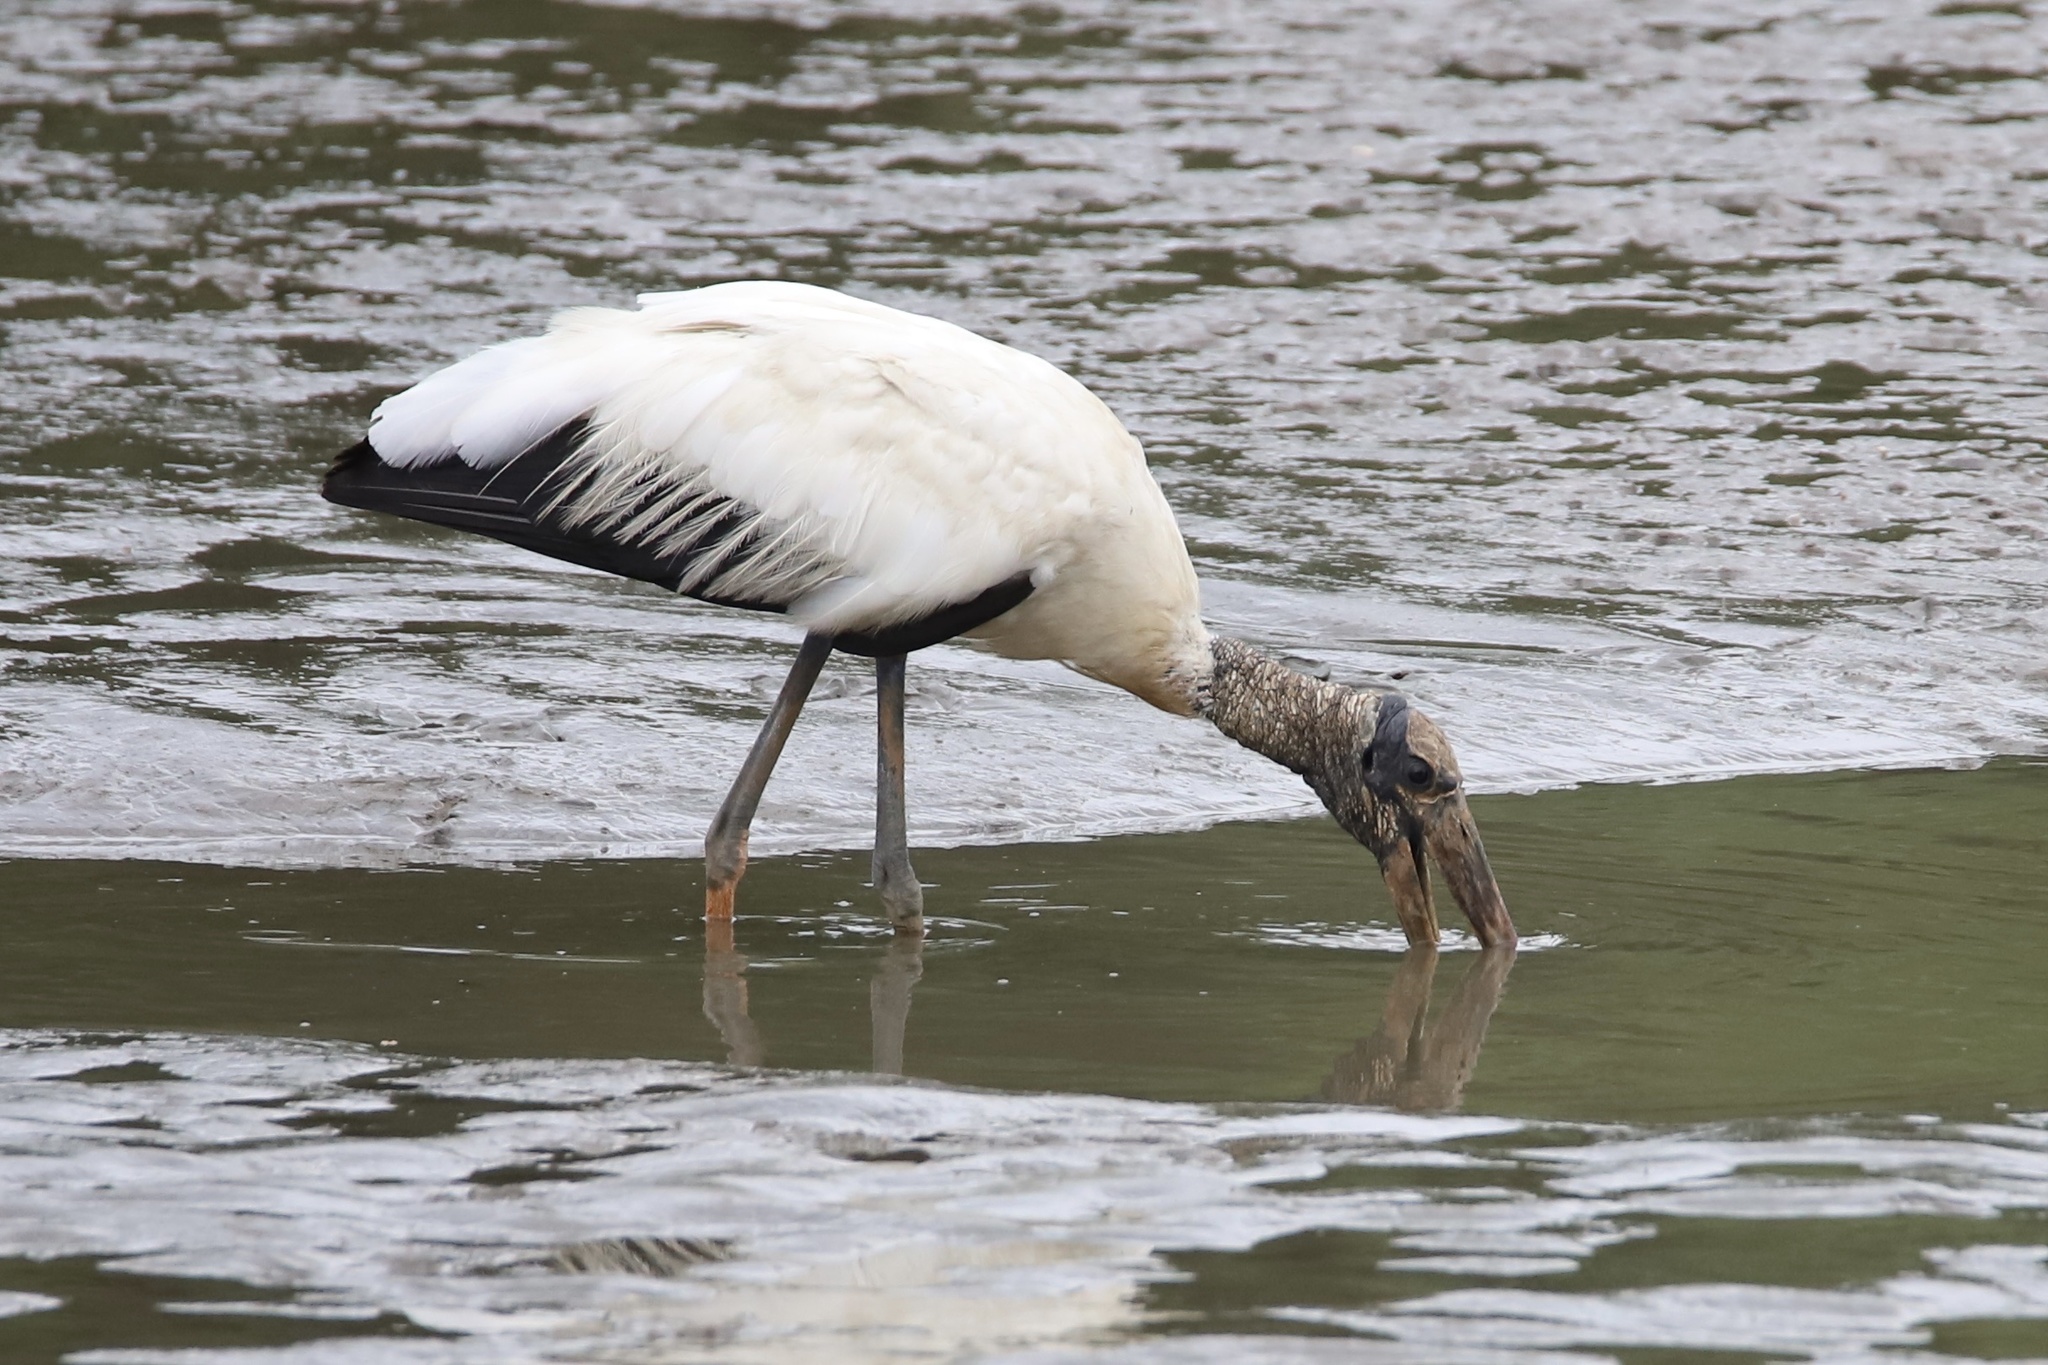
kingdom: Animalia
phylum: Chordata
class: Aves
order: Ciconiiformes
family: Ciconiidae
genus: Mycteria
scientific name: Mycteria americana
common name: Wood stork
